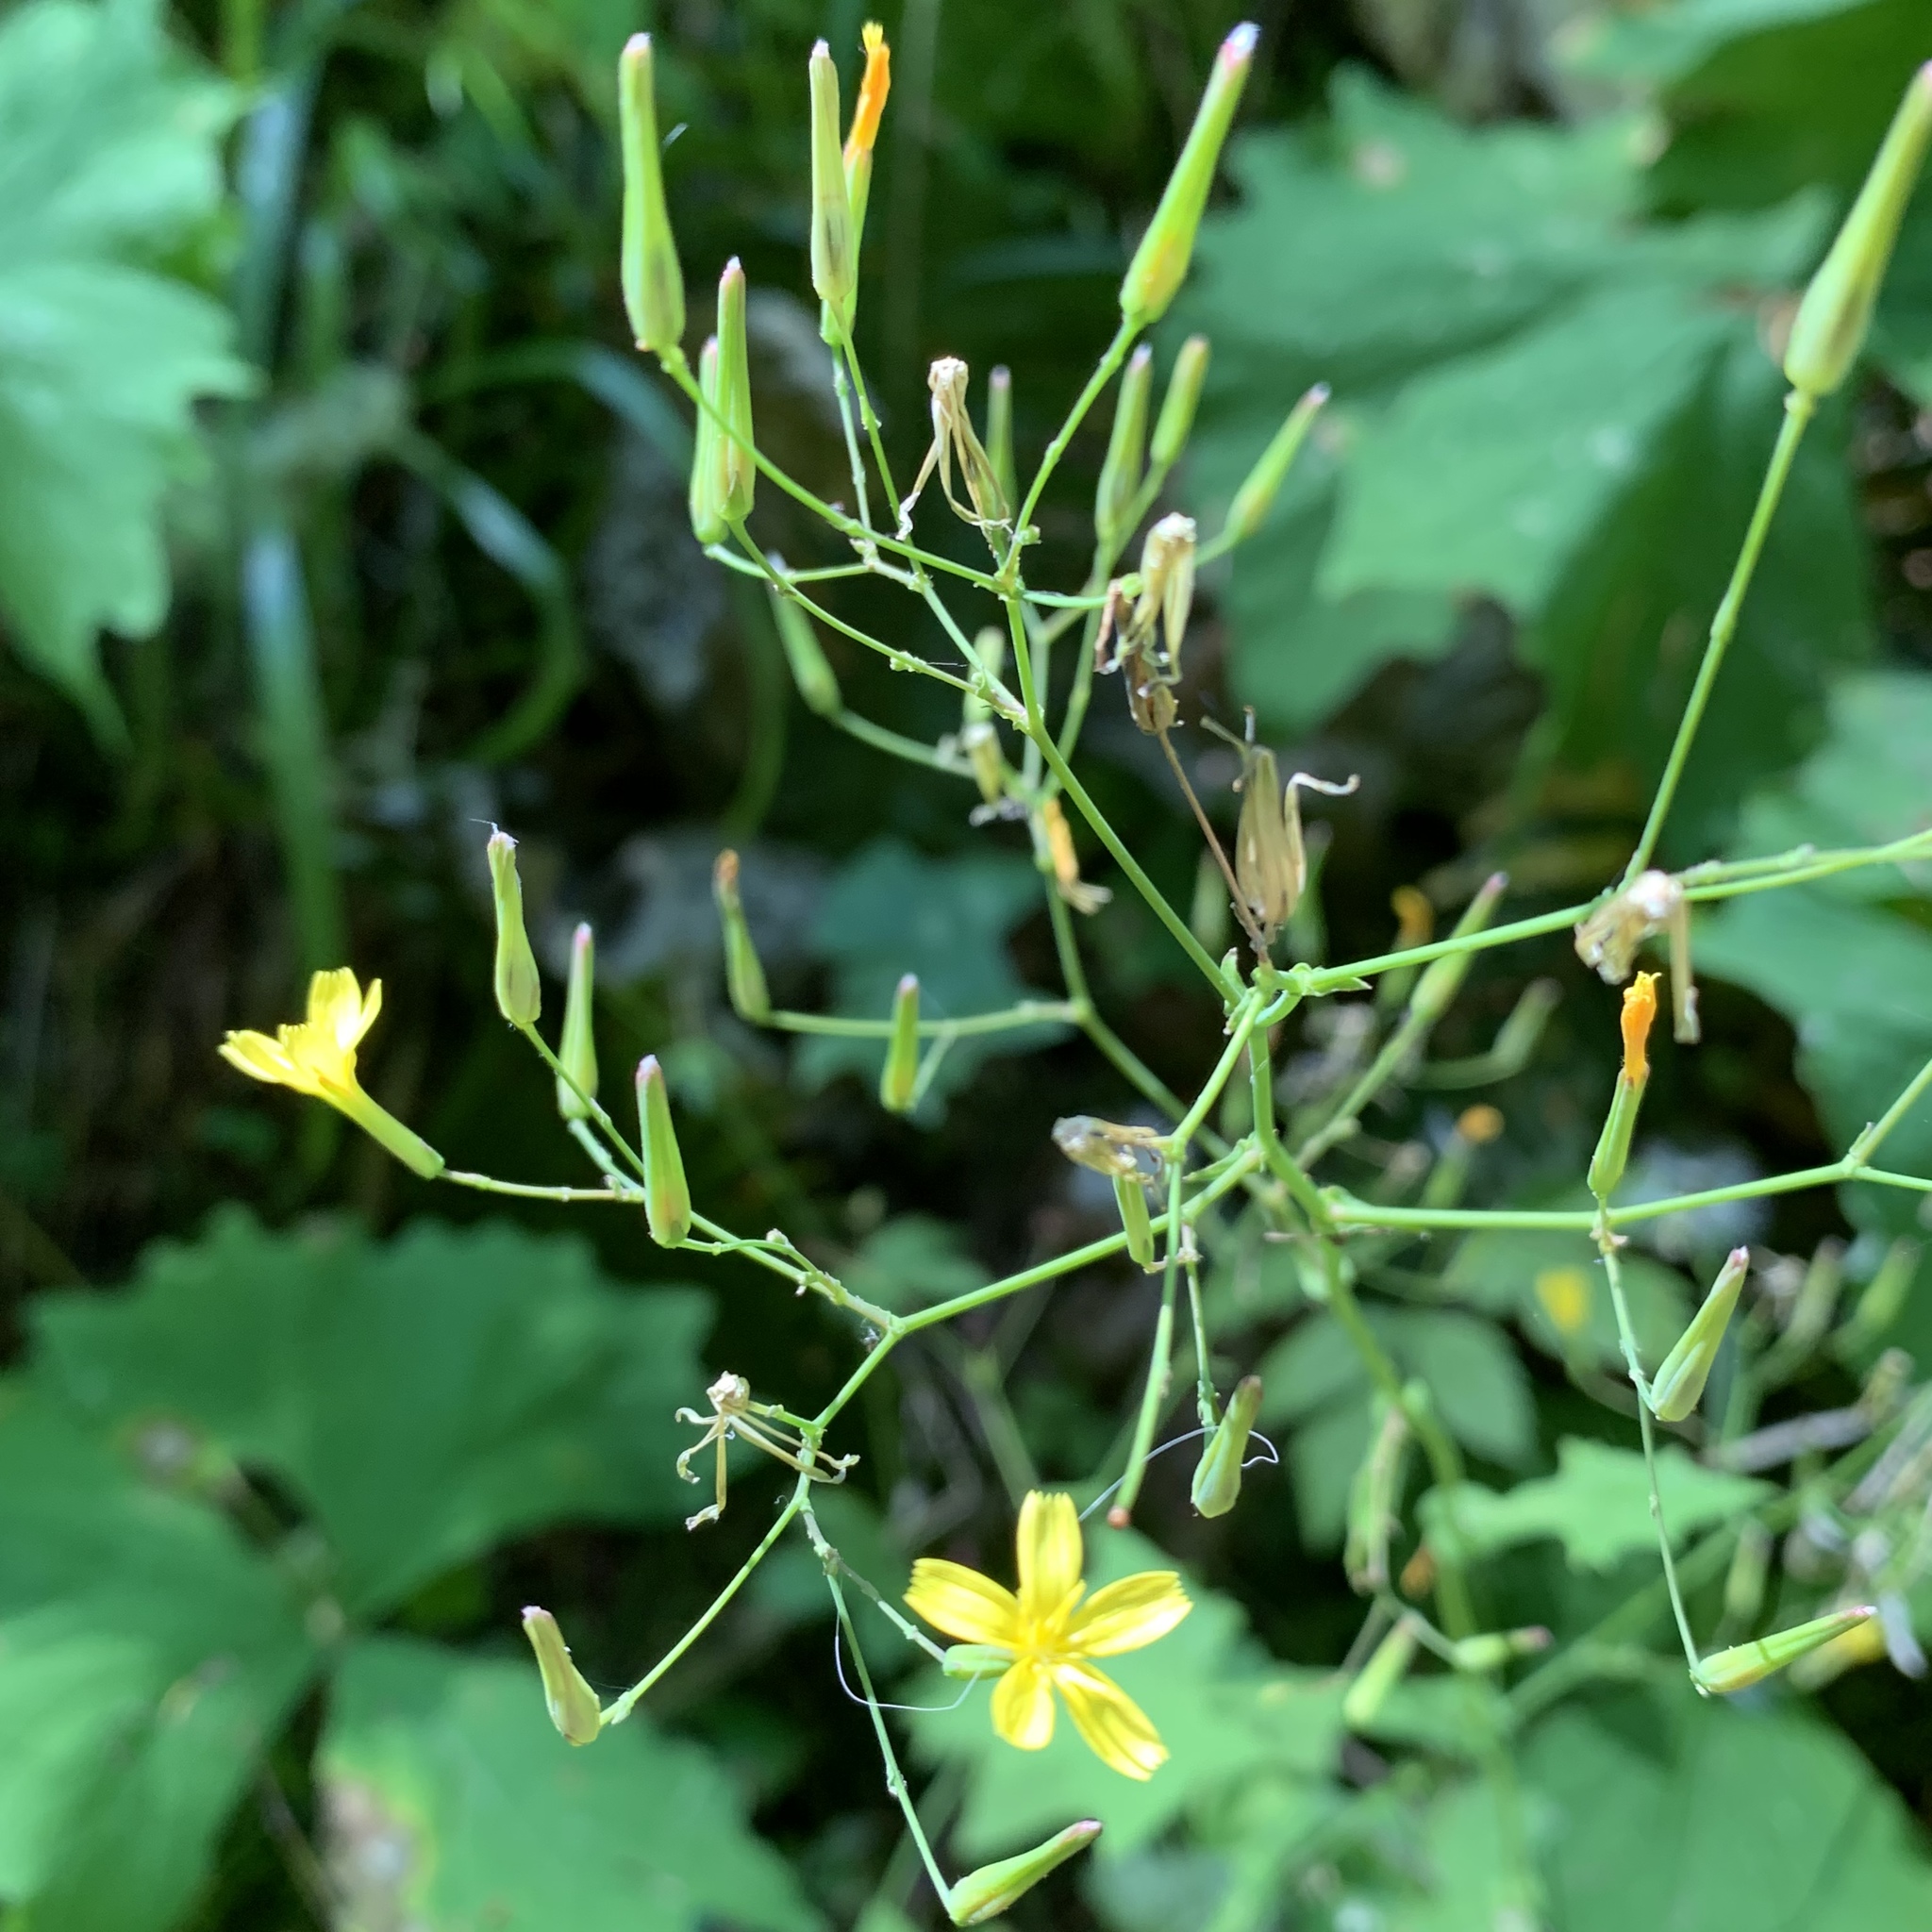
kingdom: Plantae
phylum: Tracheophyta
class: Magnoliopsida
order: Asterales
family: Asteraceae
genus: Mycelis
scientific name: Mycelis muralis
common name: Wall lettuce
